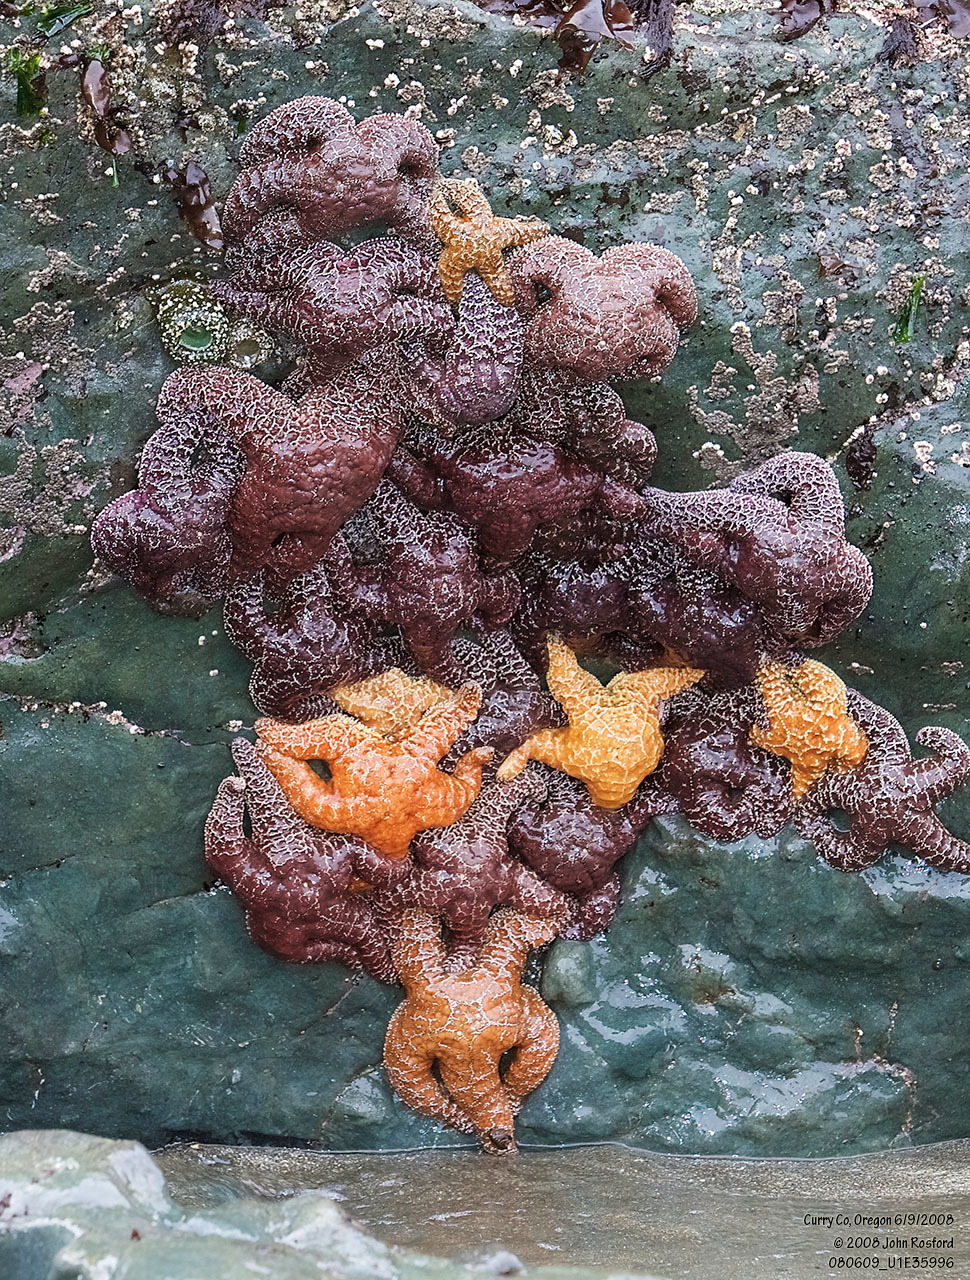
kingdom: Animalia
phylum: Echinodermata
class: Asteroidea
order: Forcipulatida
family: Asteriidae
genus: Pisaster
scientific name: Pisaster ochraceus
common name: Ochre stars
